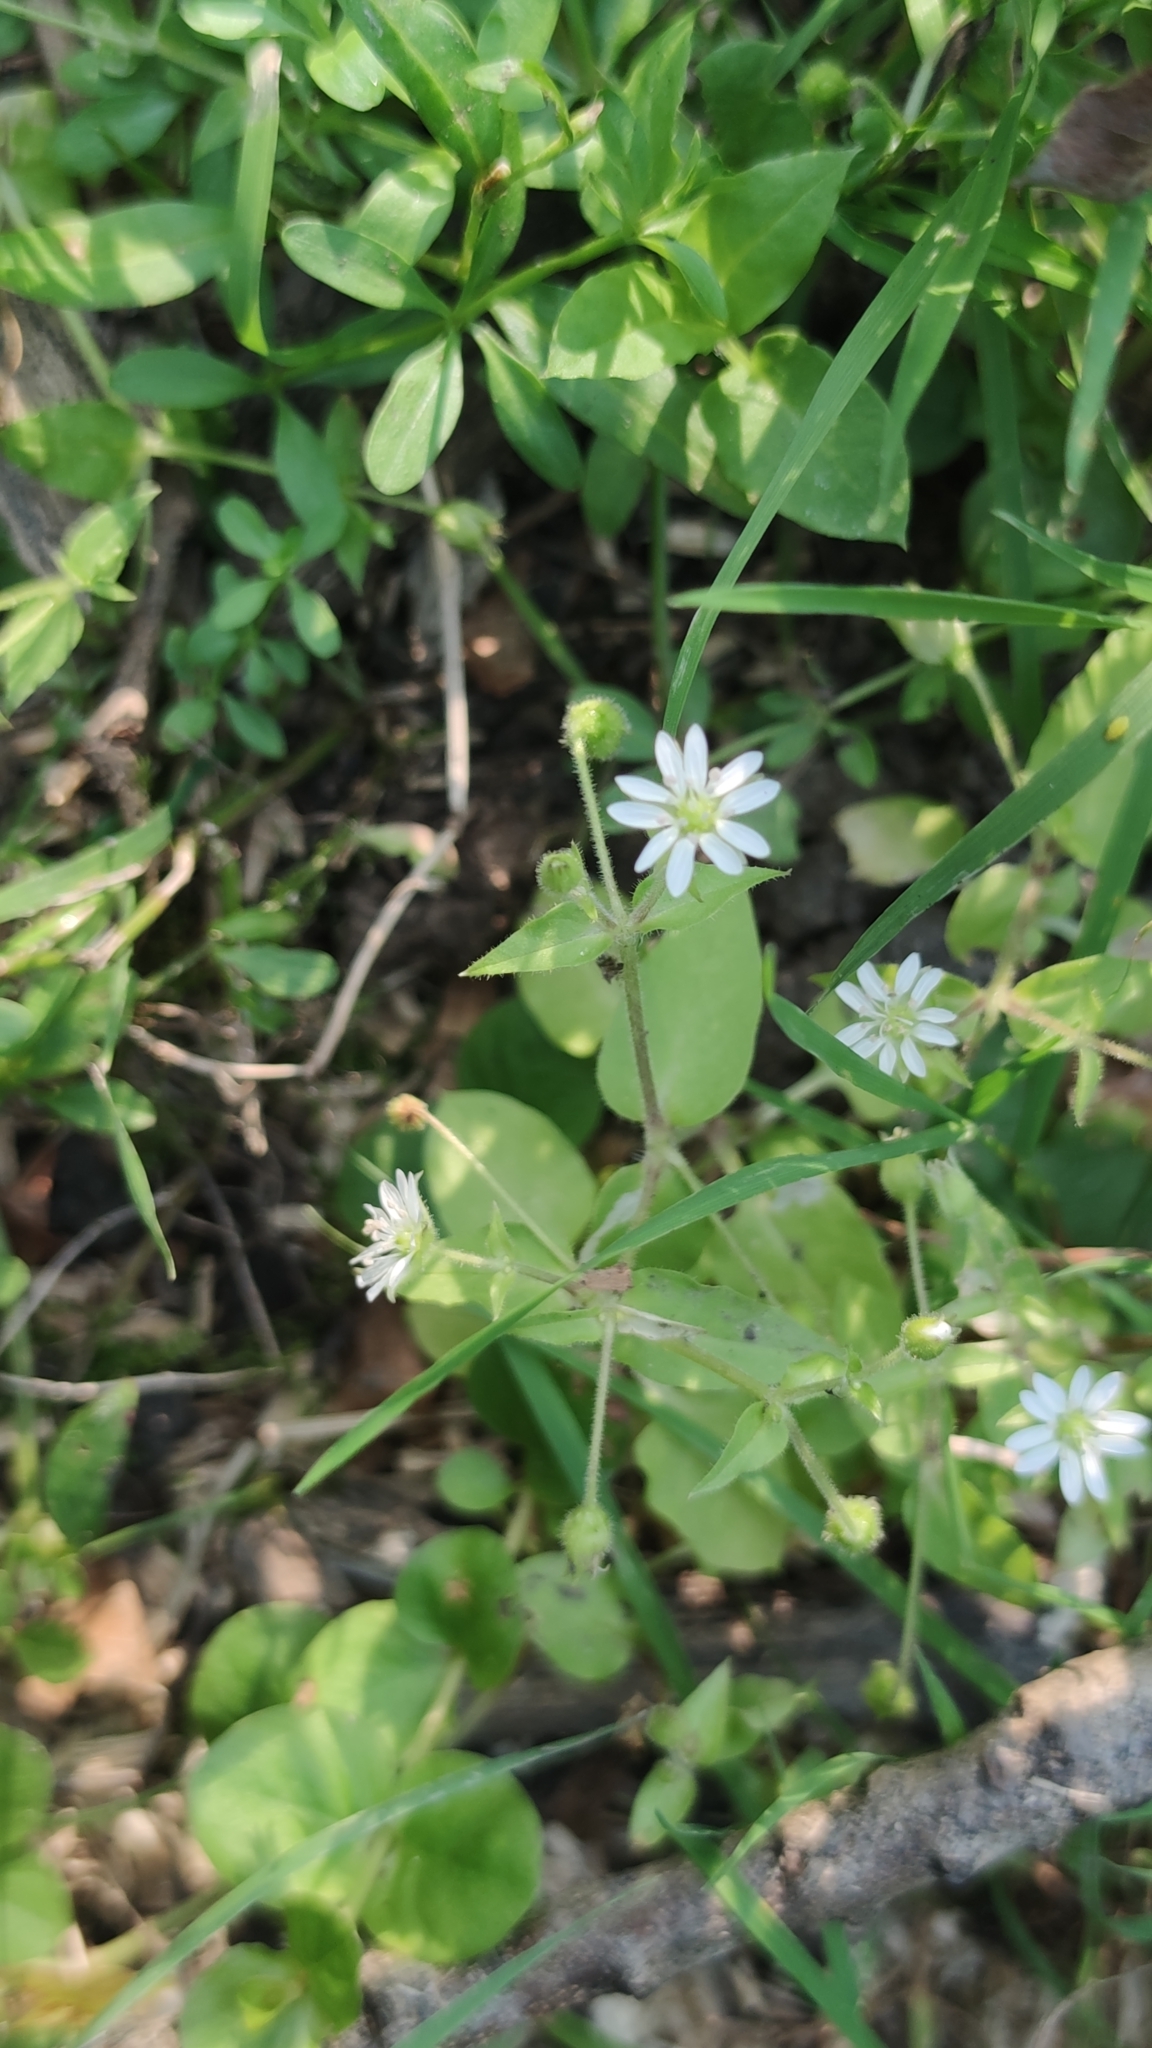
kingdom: Plantae
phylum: Tracheophyta
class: Magnoliopsida
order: Caryophyllales
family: Caryophyllaceae
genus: Stellaria
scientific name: Stellaria aquatica
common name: Water chickweed
